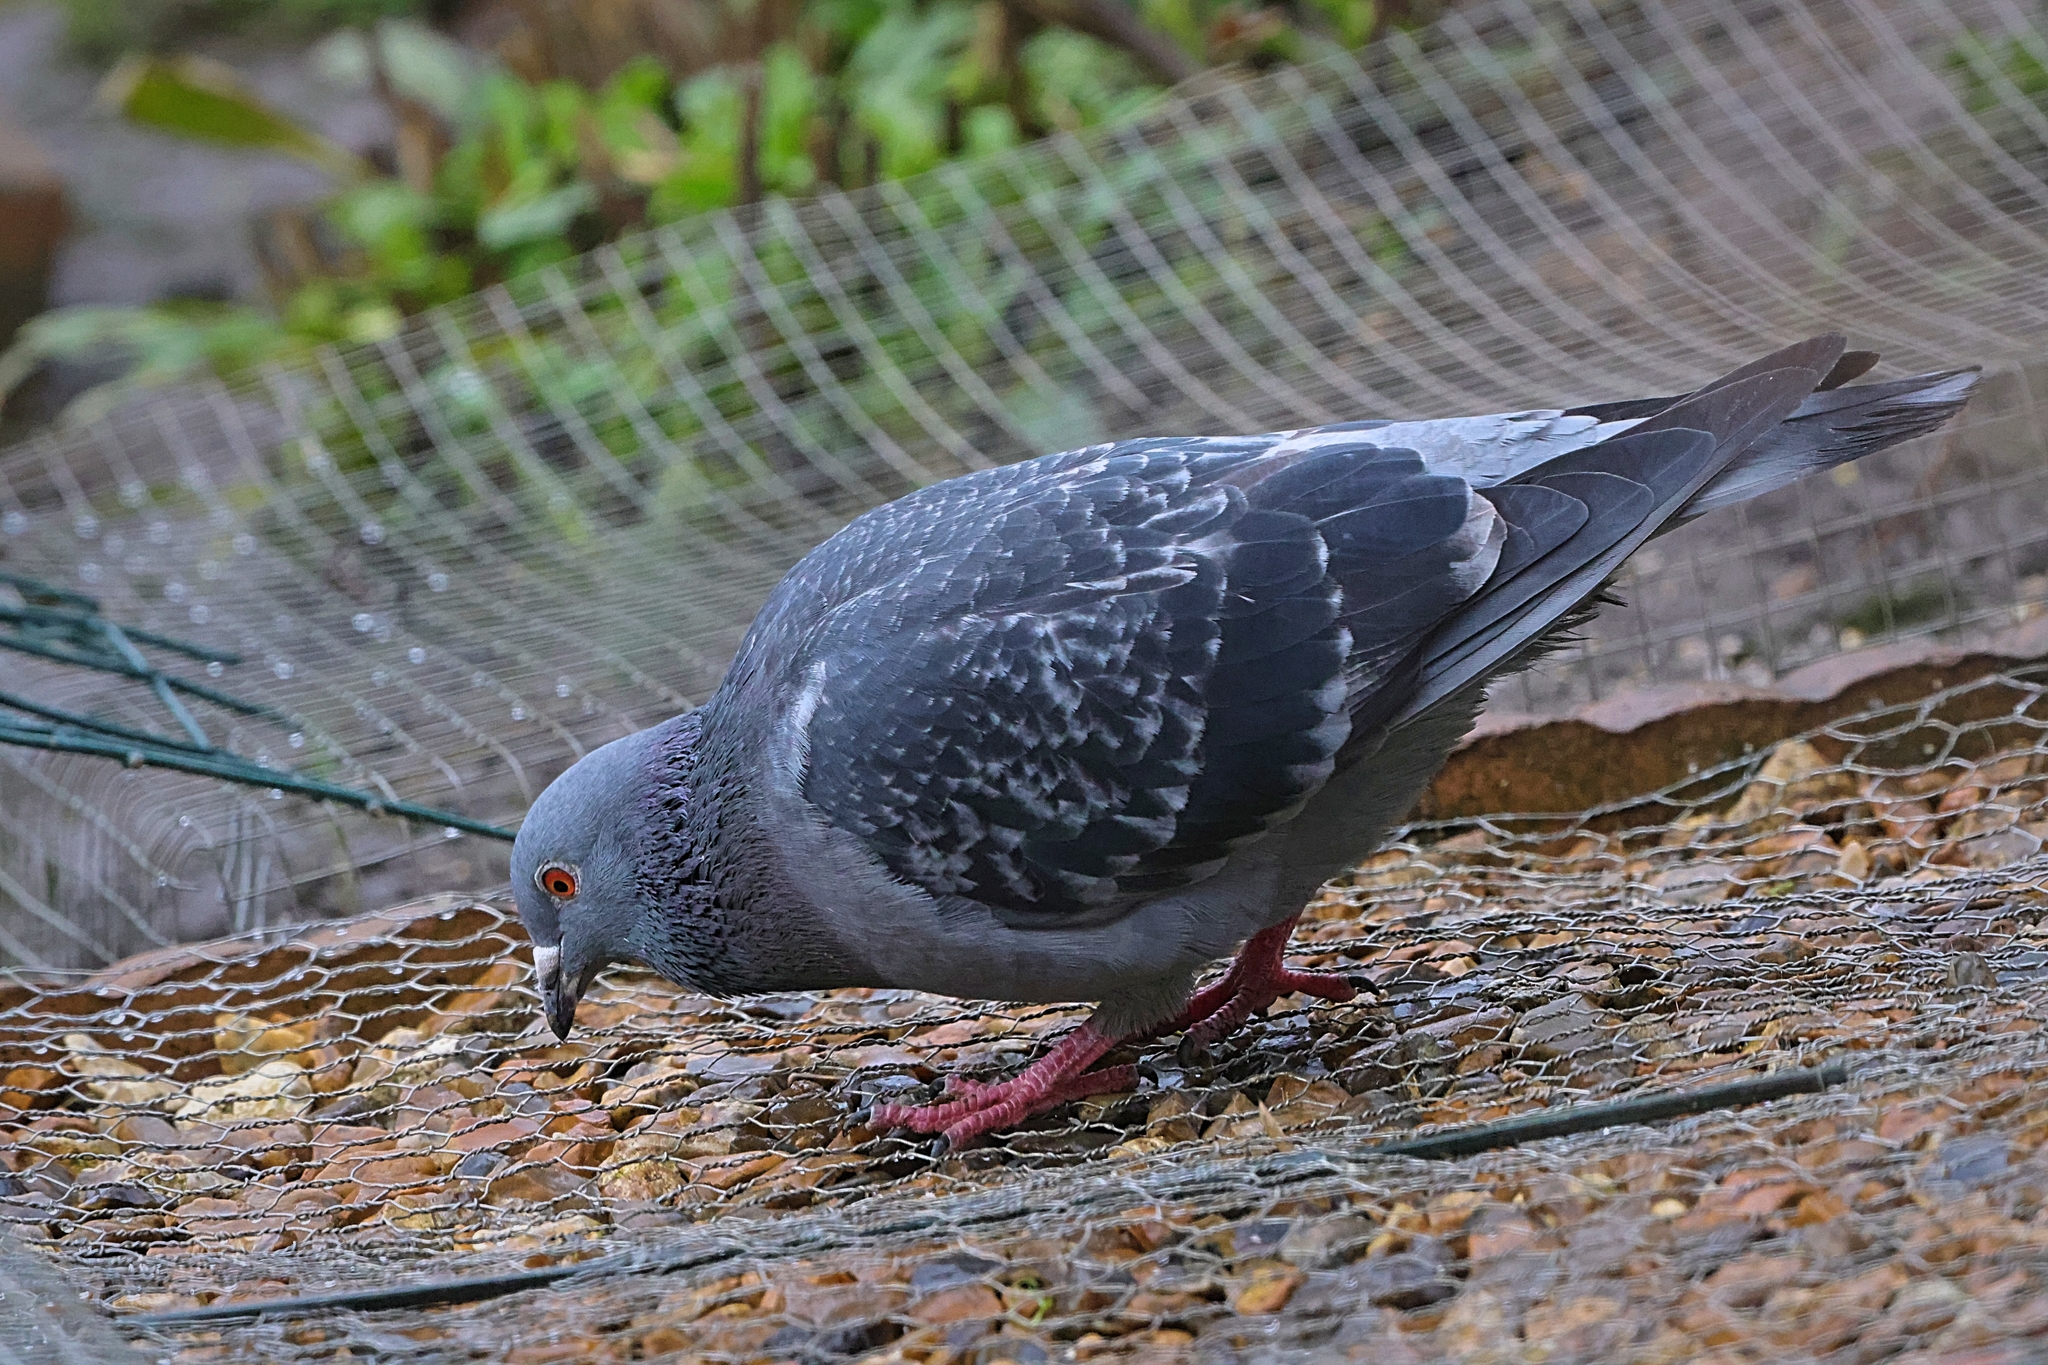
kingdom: Animalia
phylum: Chordata
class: Aves
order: Columbiformes
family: Columbidae
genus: Columba
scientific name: Columba livia
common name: Rock pigeon
